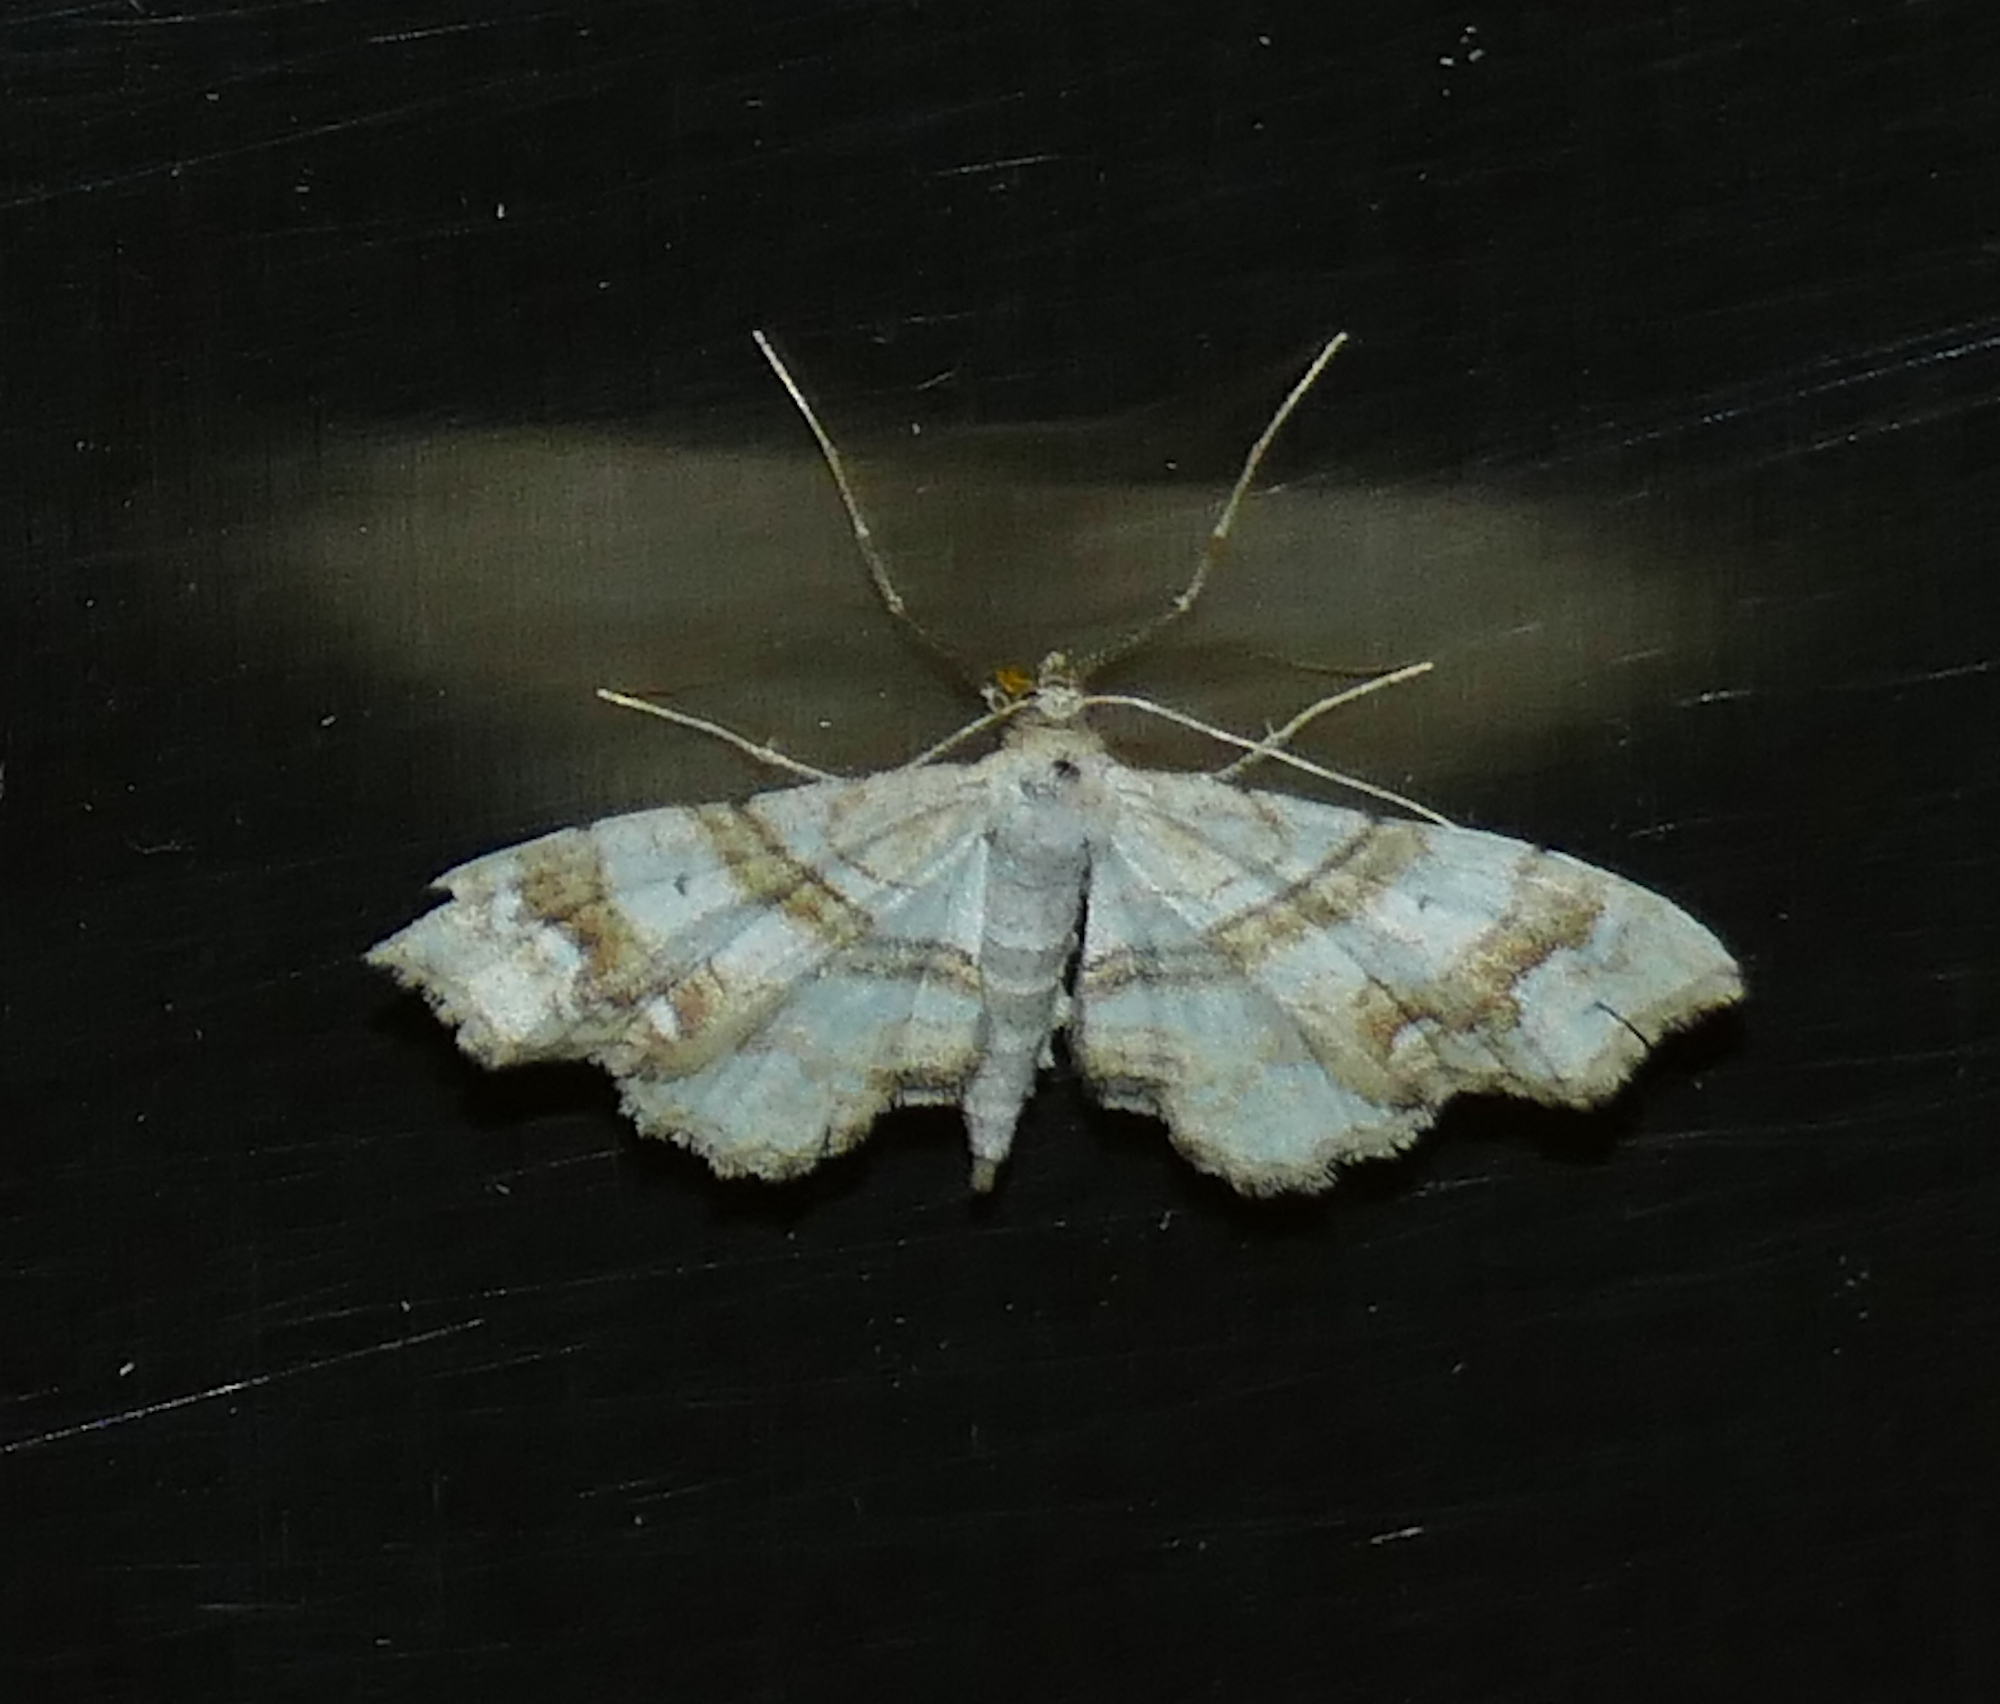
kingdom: Animalia
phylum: Arthropoda
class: Insecta
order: Lepidoptera
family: Geometridae
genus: Odontoptila
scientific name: Odontoptila obrimo
